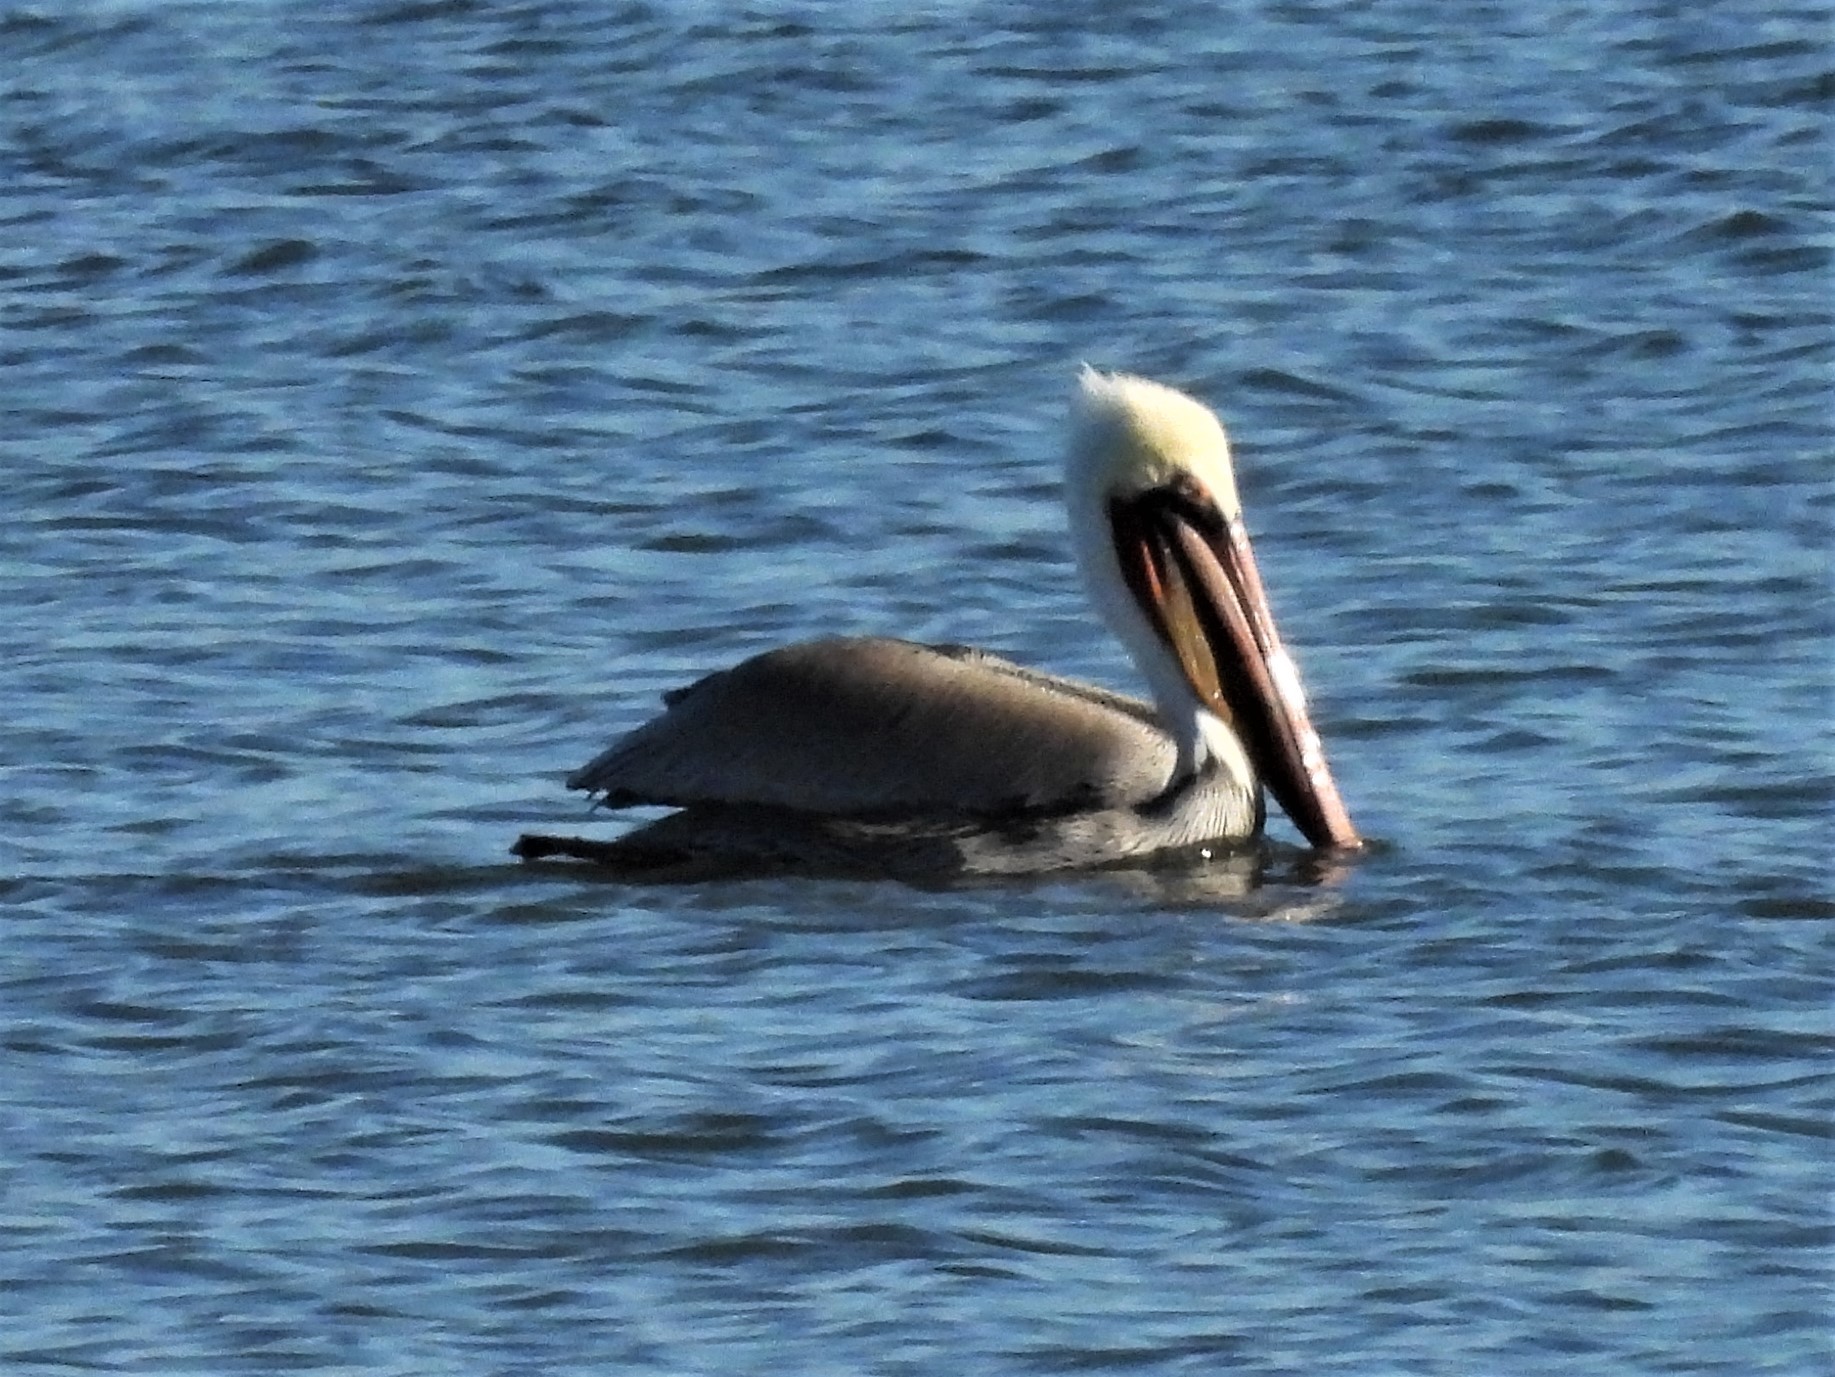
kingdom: Animalia
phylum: Chordata
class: Aves
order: Pelecaniformes
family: Pelecanidae
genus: Pelecanus
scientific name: Pelecanus occidentalis
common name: Brown pelican
